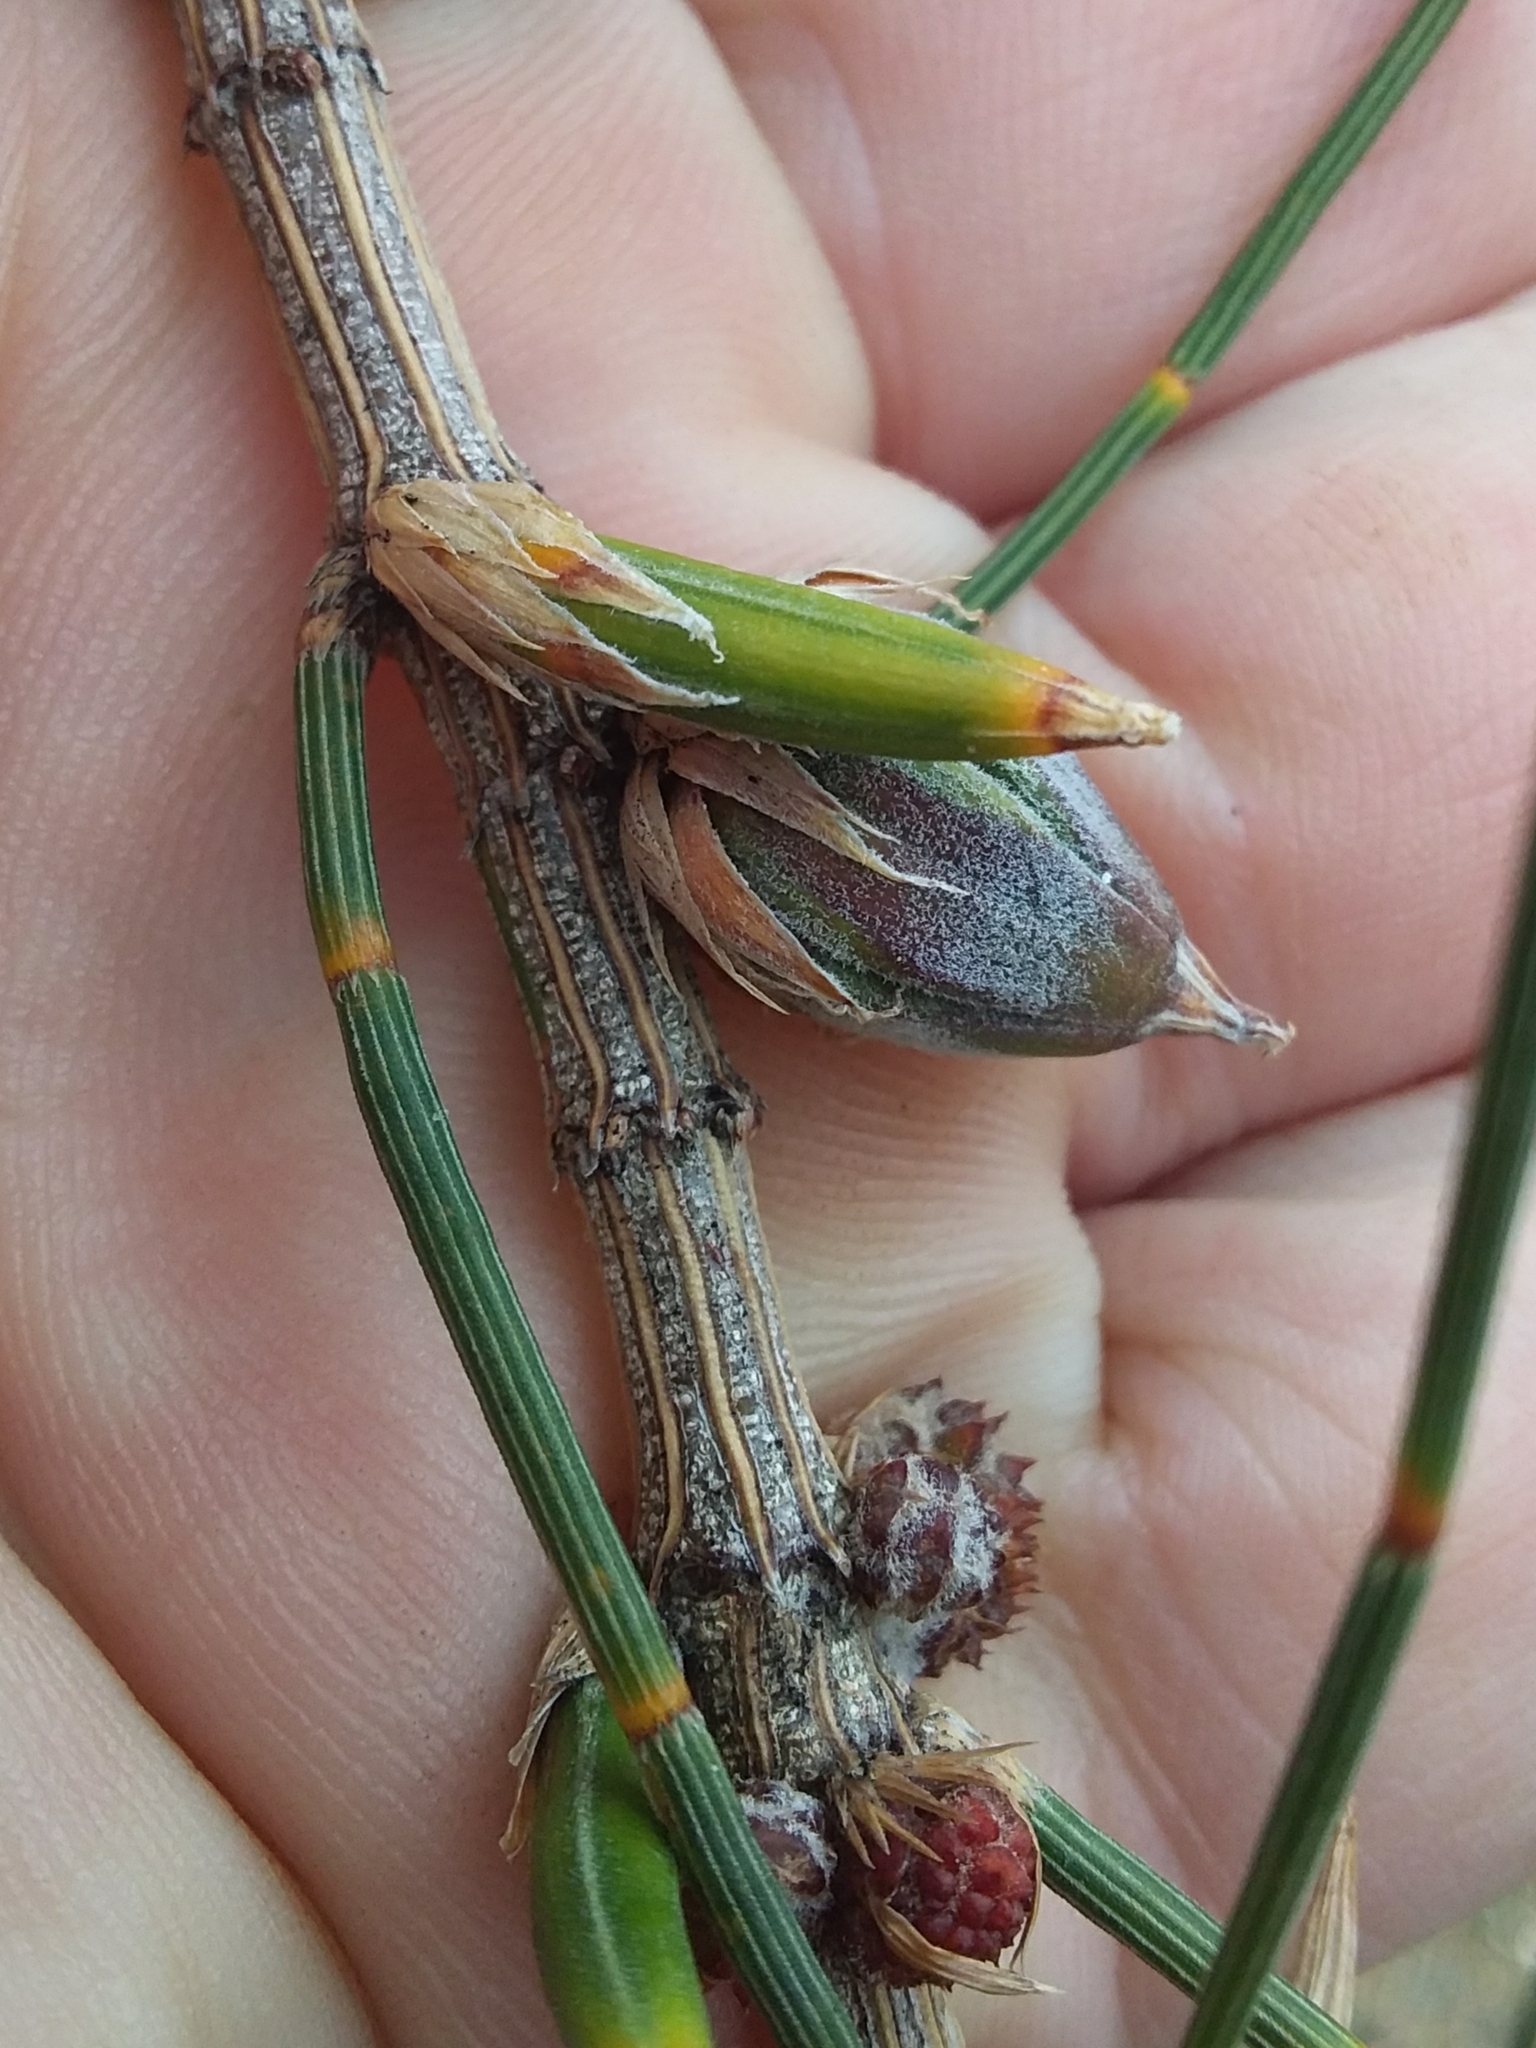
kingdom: Animalia
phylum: Arthropoda
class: Insecta
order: Hemiptera
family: Eriococcidae
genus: Cylindrococcus
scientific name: Cylindrococcus casuarinae
